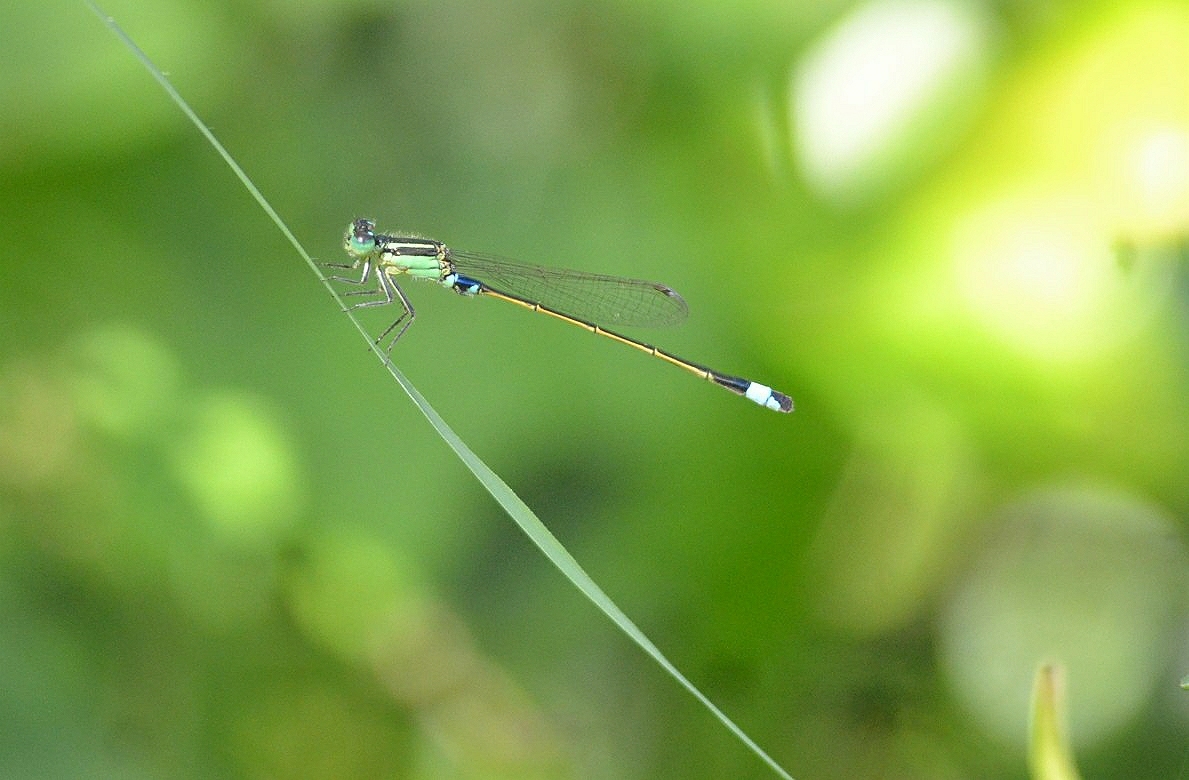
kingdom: Animalia
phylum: Arthropoda
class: Insecta
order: Odonata
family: Coenagrionidae
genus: Ischnura
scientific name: Ischnura senegalensis
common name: Tropical bluetail
